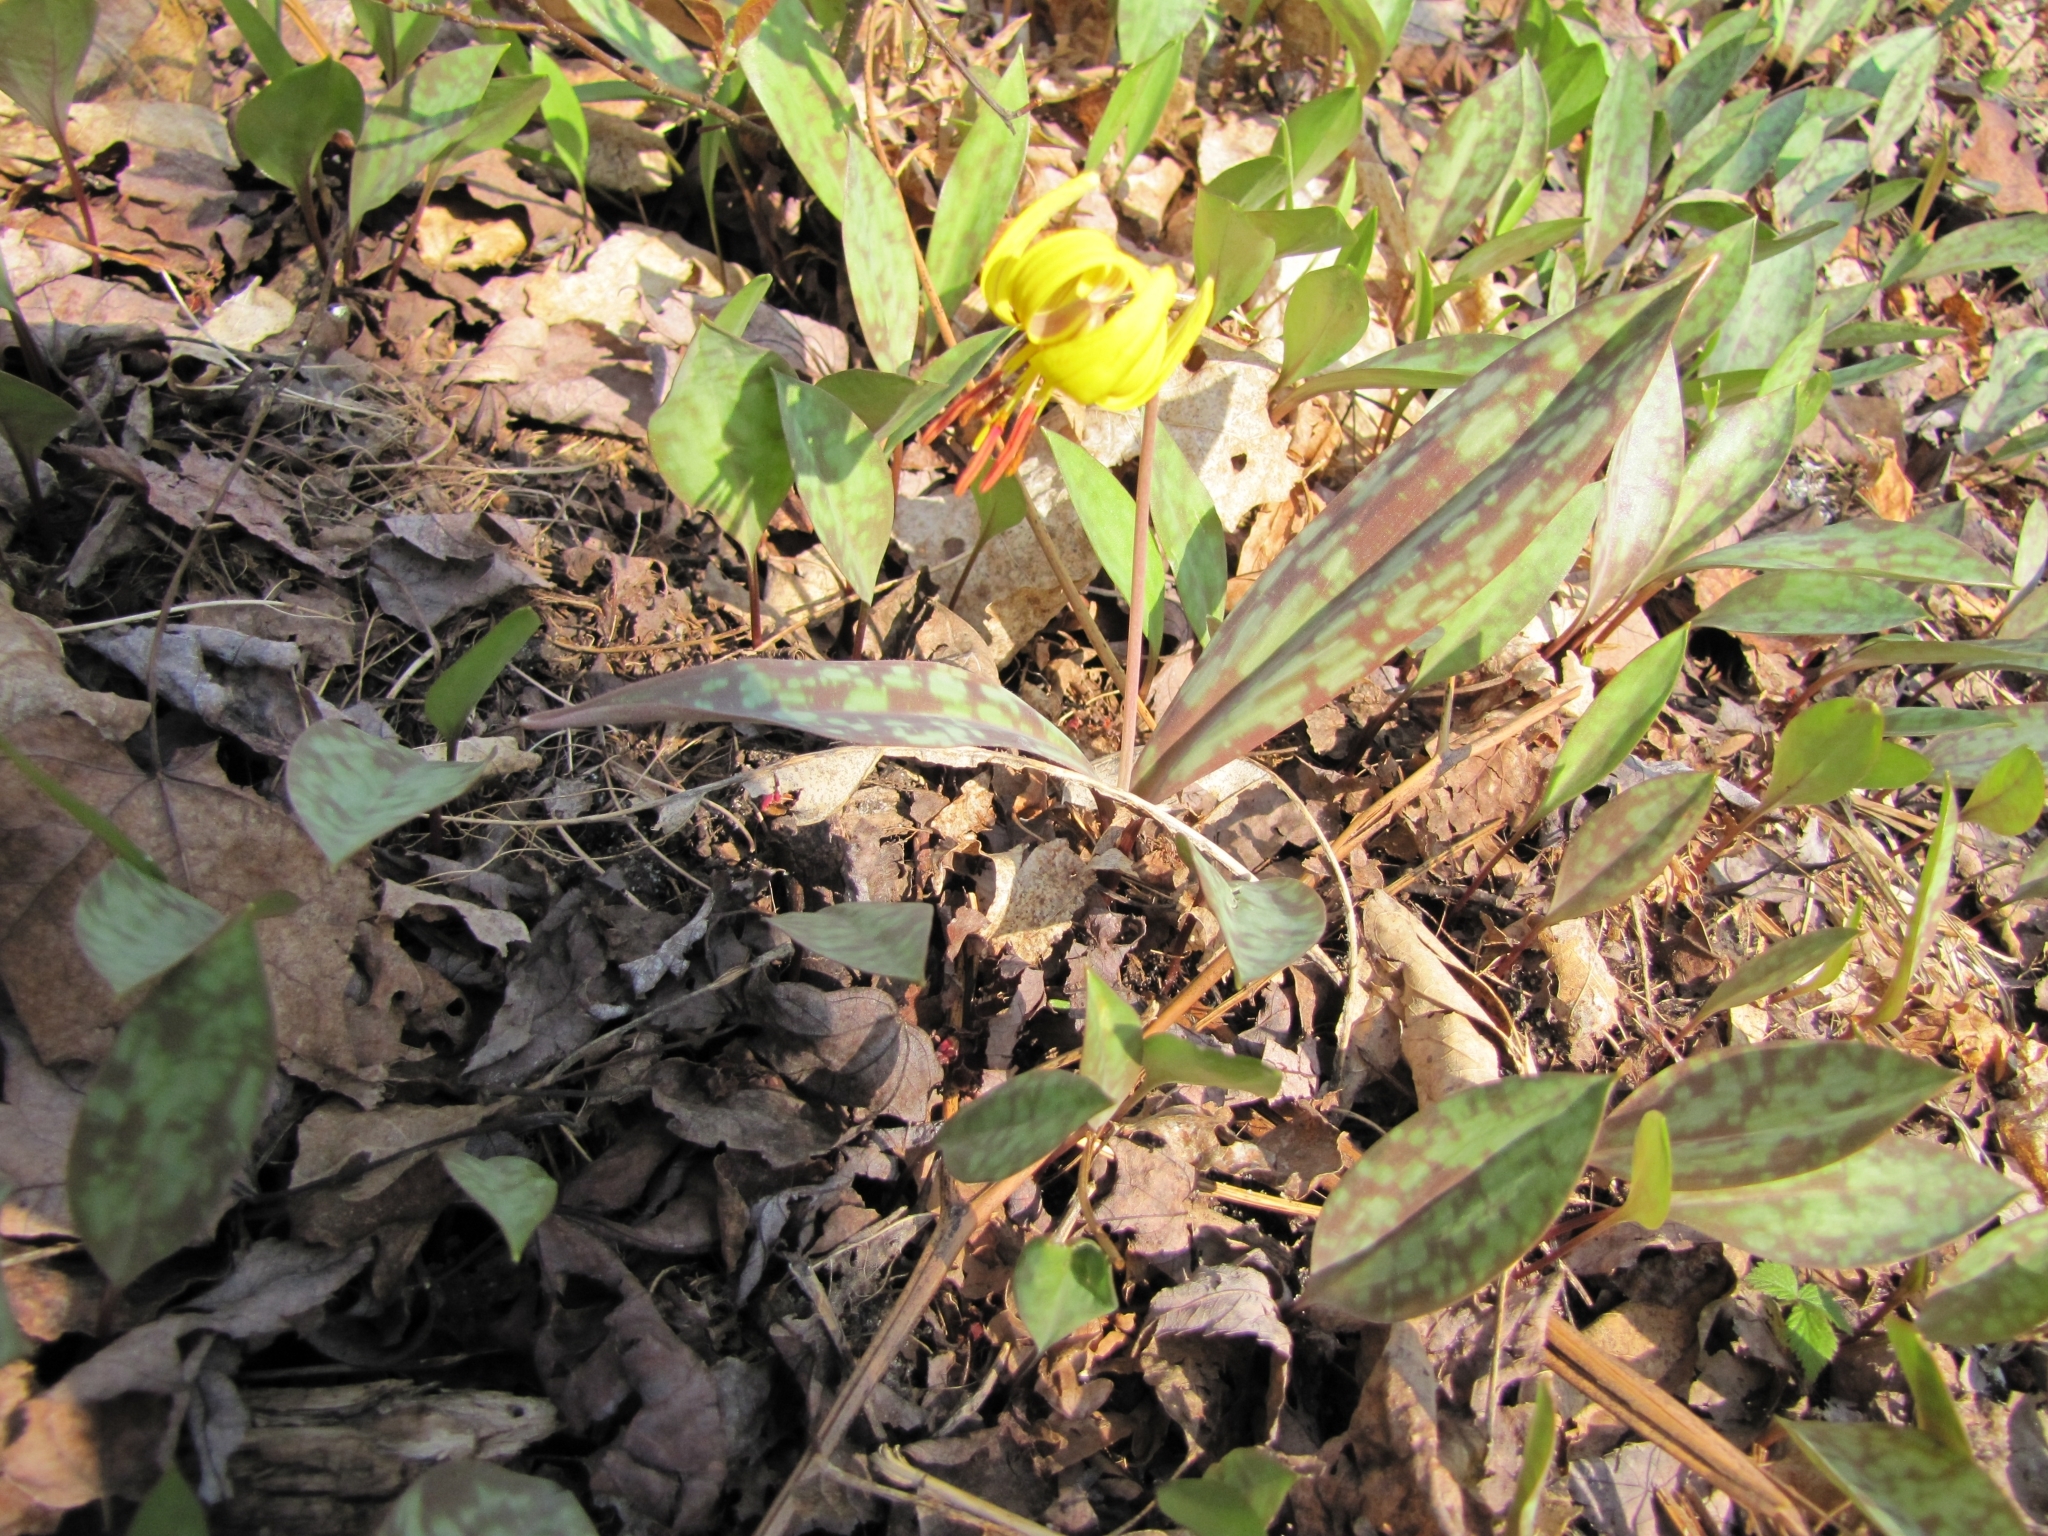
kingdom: Plantae
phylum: Tracheophyta
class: Liliopsida
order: Liliales
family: Liliaceae
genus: Erythronium
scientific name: Erythronium americanum
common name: Yellow adder's-tongue
